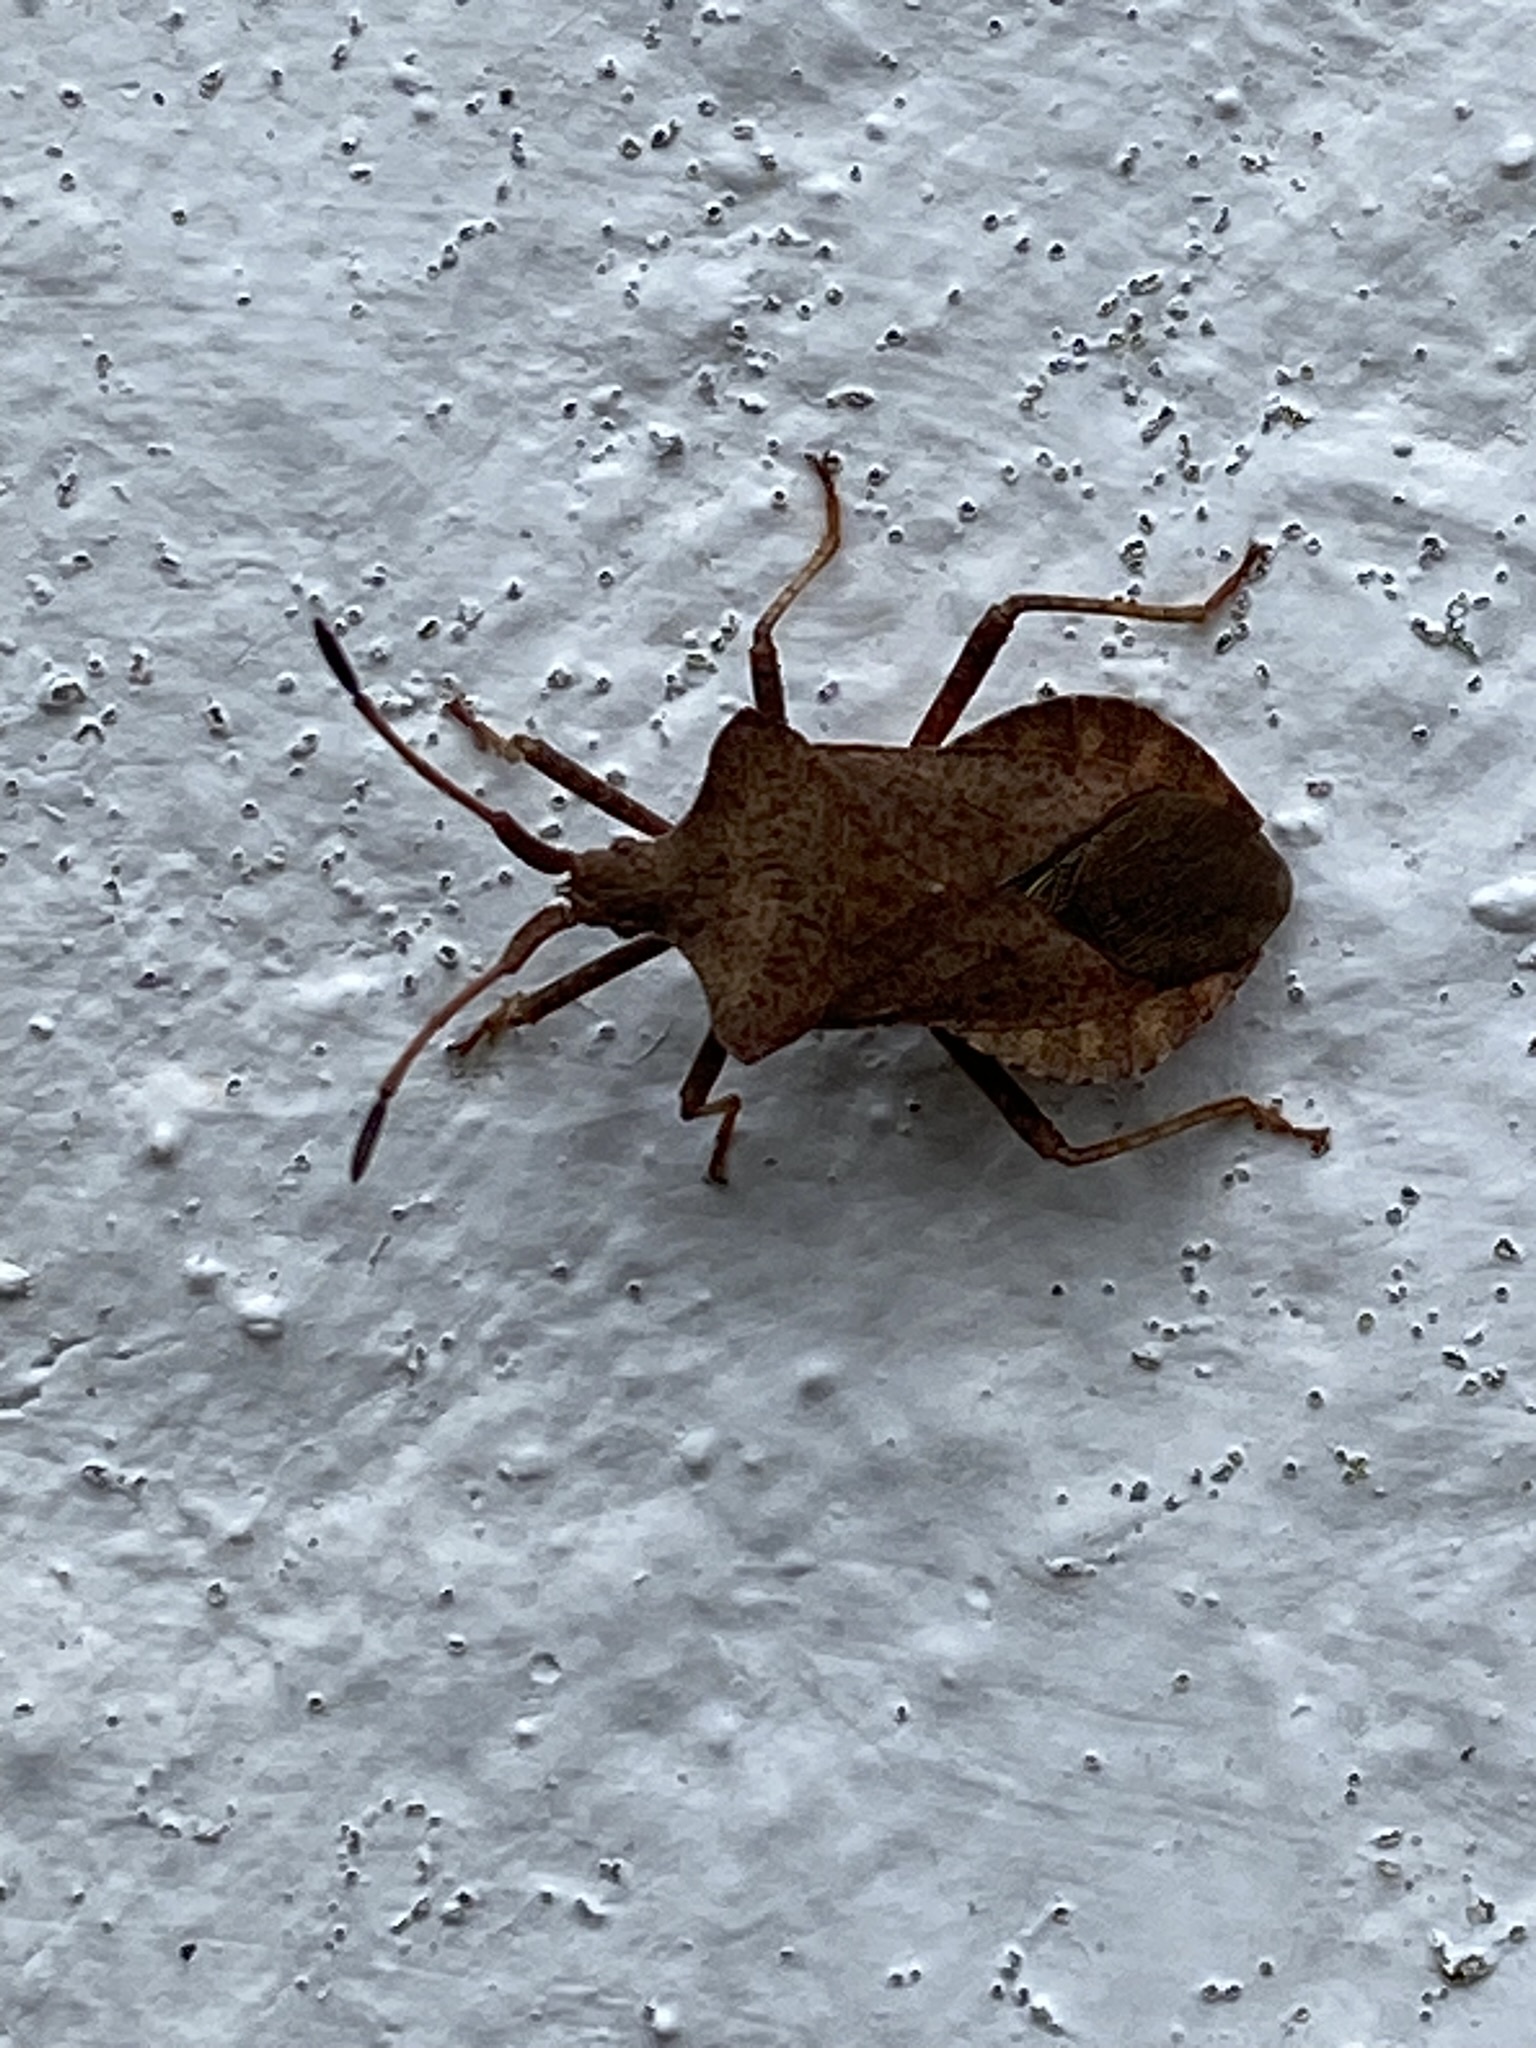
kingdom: Animalia
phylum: Arthropoda
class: Insecta
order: Hemiptera
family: Coreidae
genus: Coreus
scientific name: Coreus marginatus
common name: Dock bug
